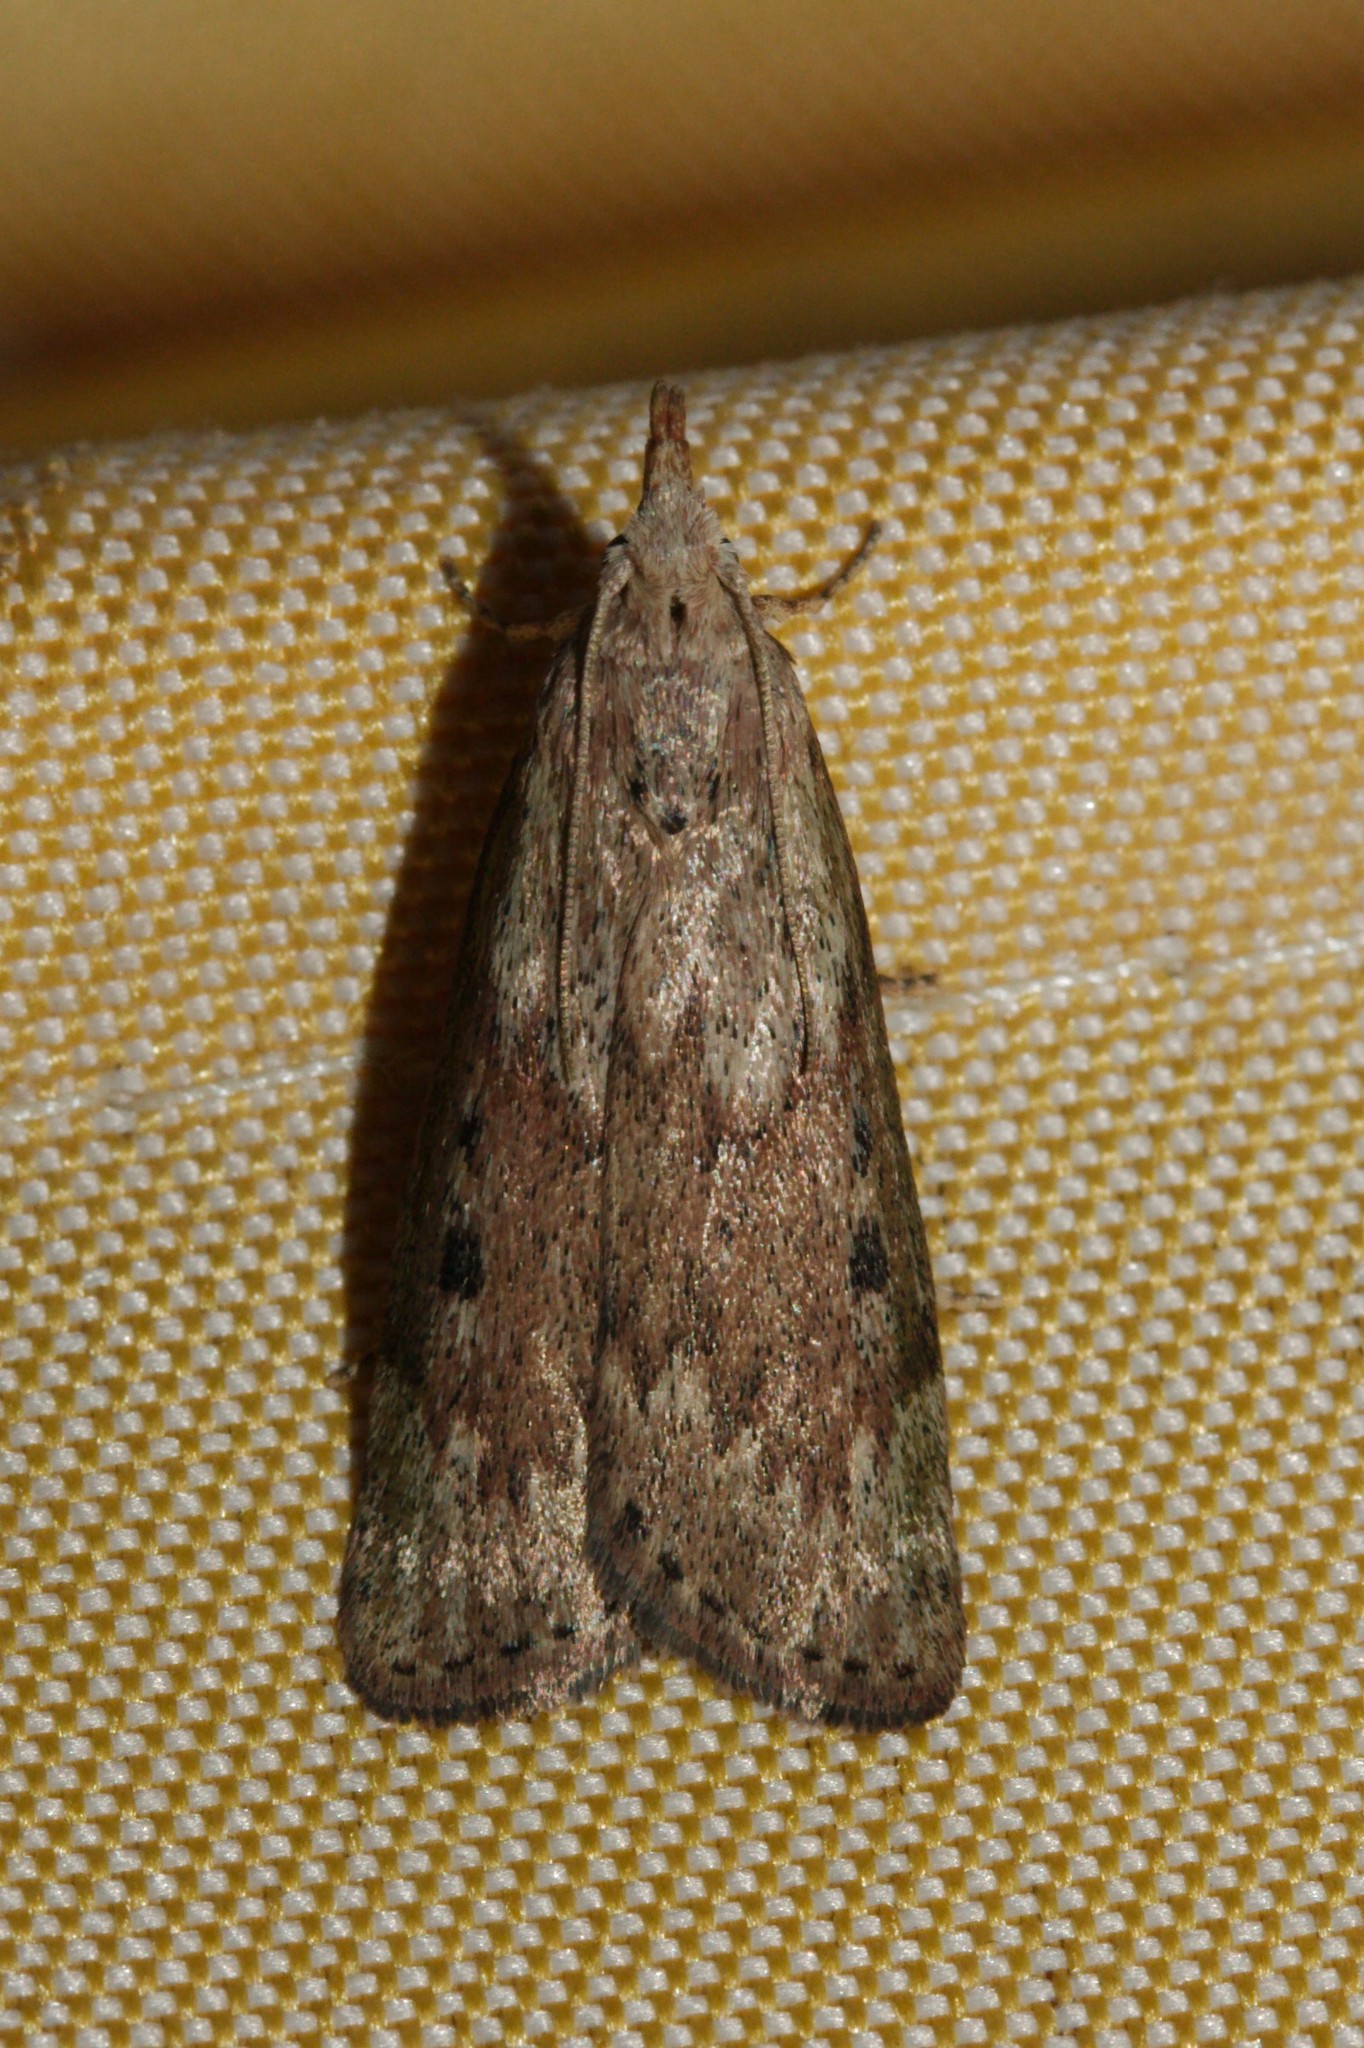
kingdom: Animalia
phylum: Arthropoda
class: Insecta
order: Lepidoptera
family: Pyralidae
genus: Aphomia
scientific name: Aphomia sociella
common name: Bee moth
